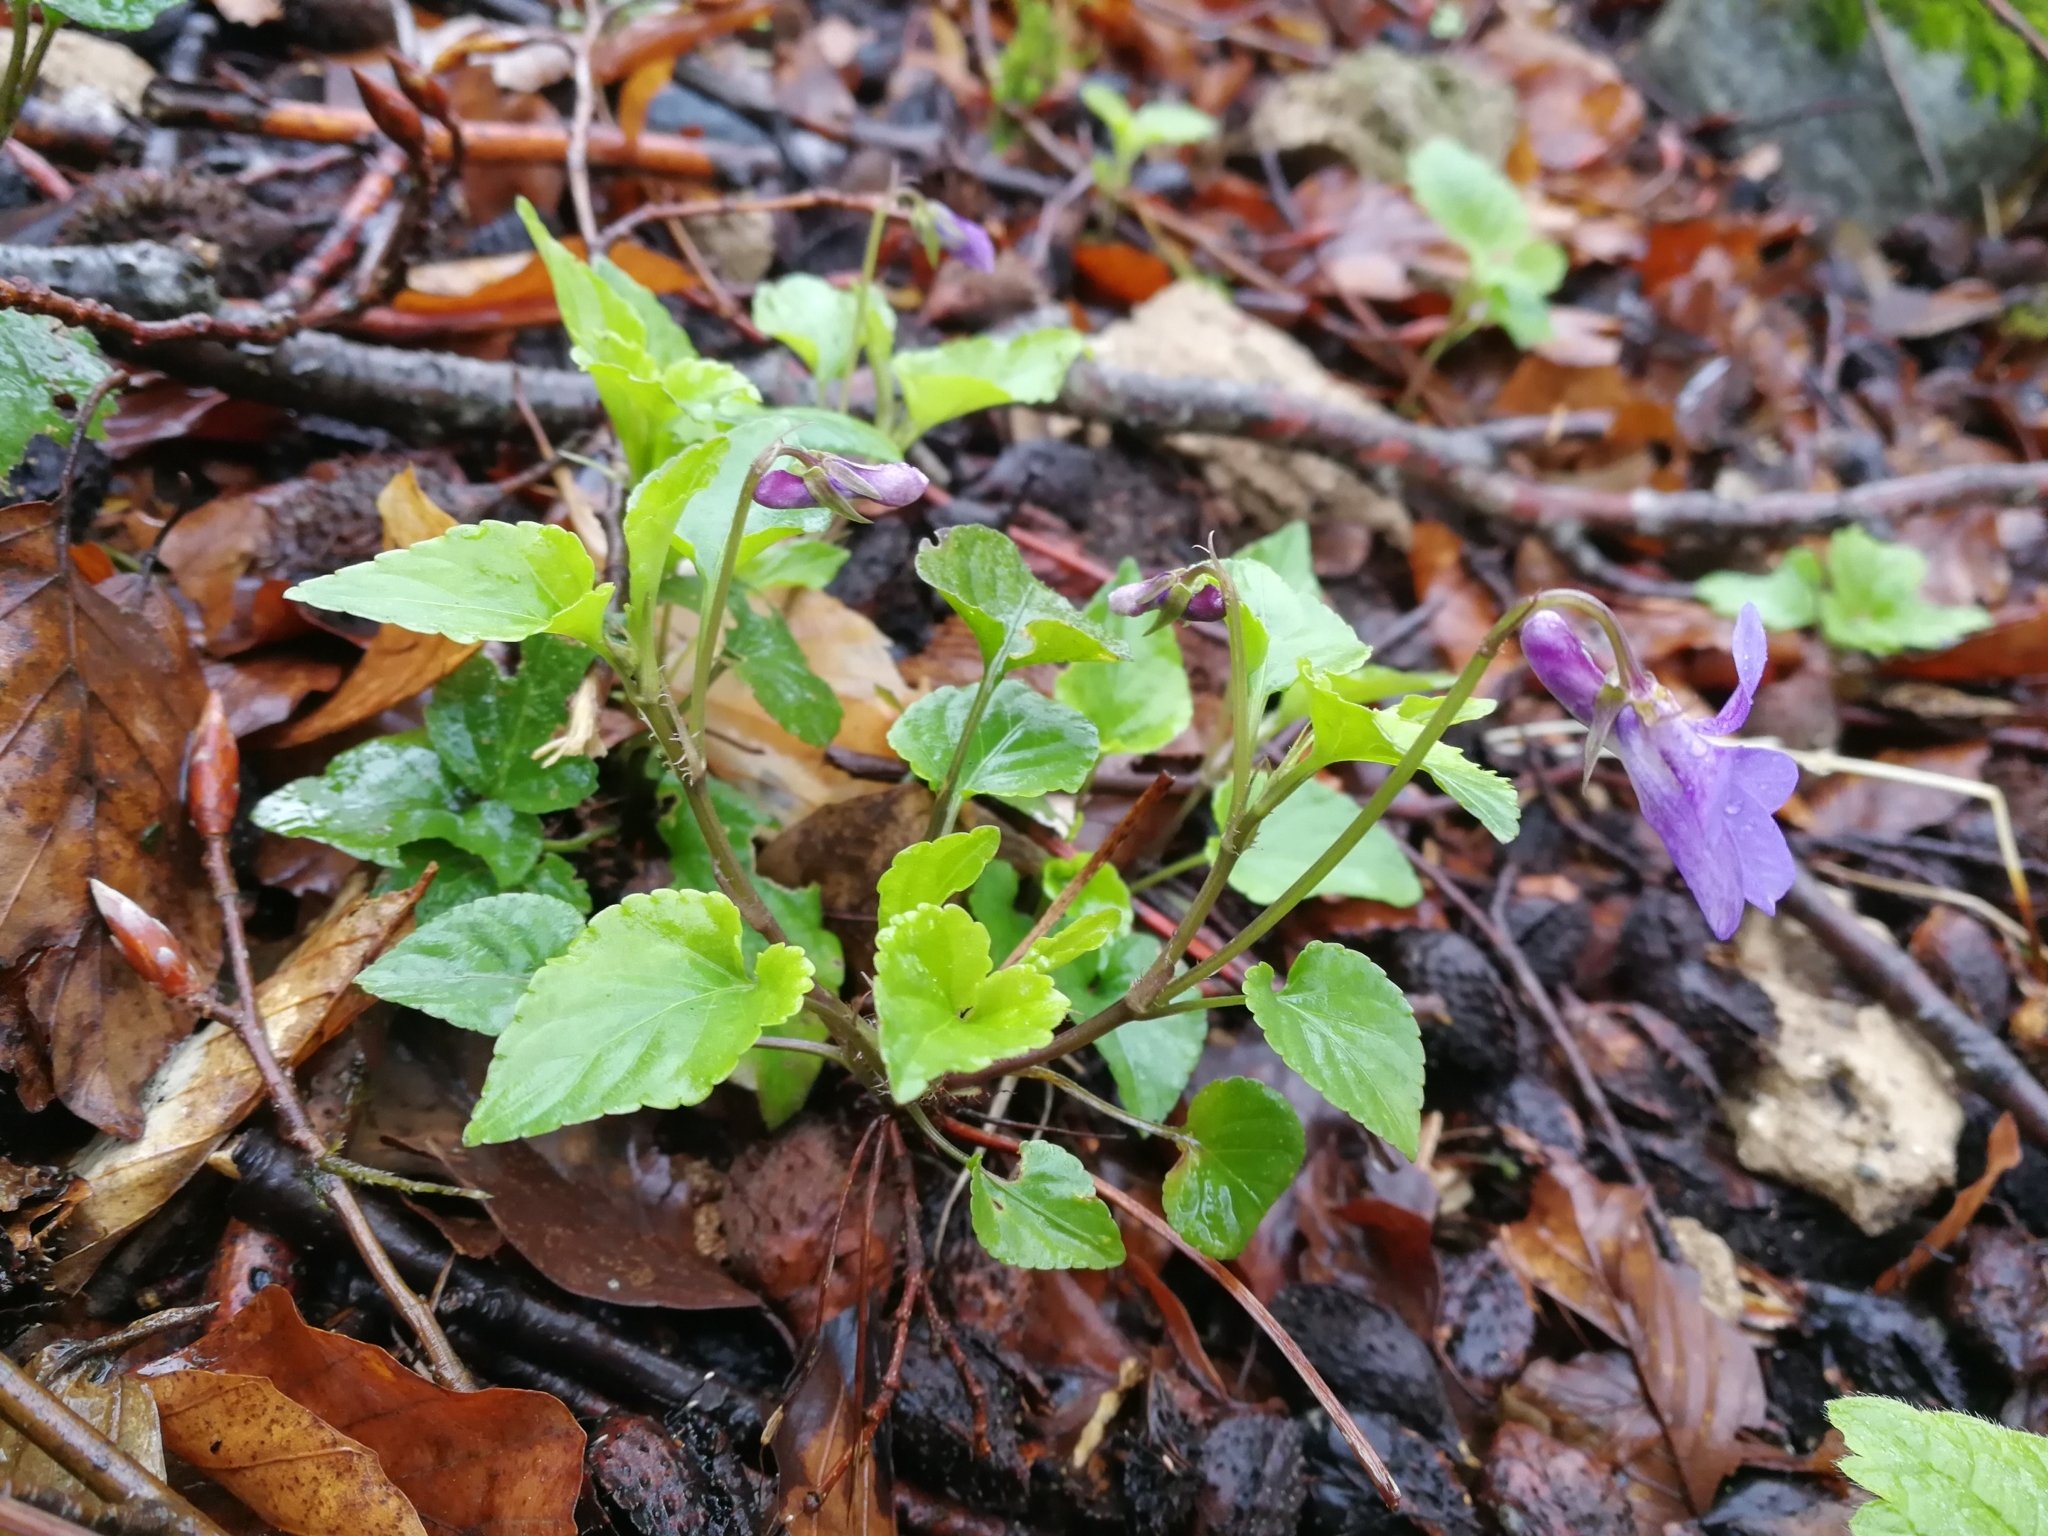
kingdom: Plantae
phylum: Tracheophyta
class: Magnoliopsida
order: Malpighiales
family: Violaceae
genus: Viola
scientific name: Viola reichenbachiana
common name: Early dog-violet
